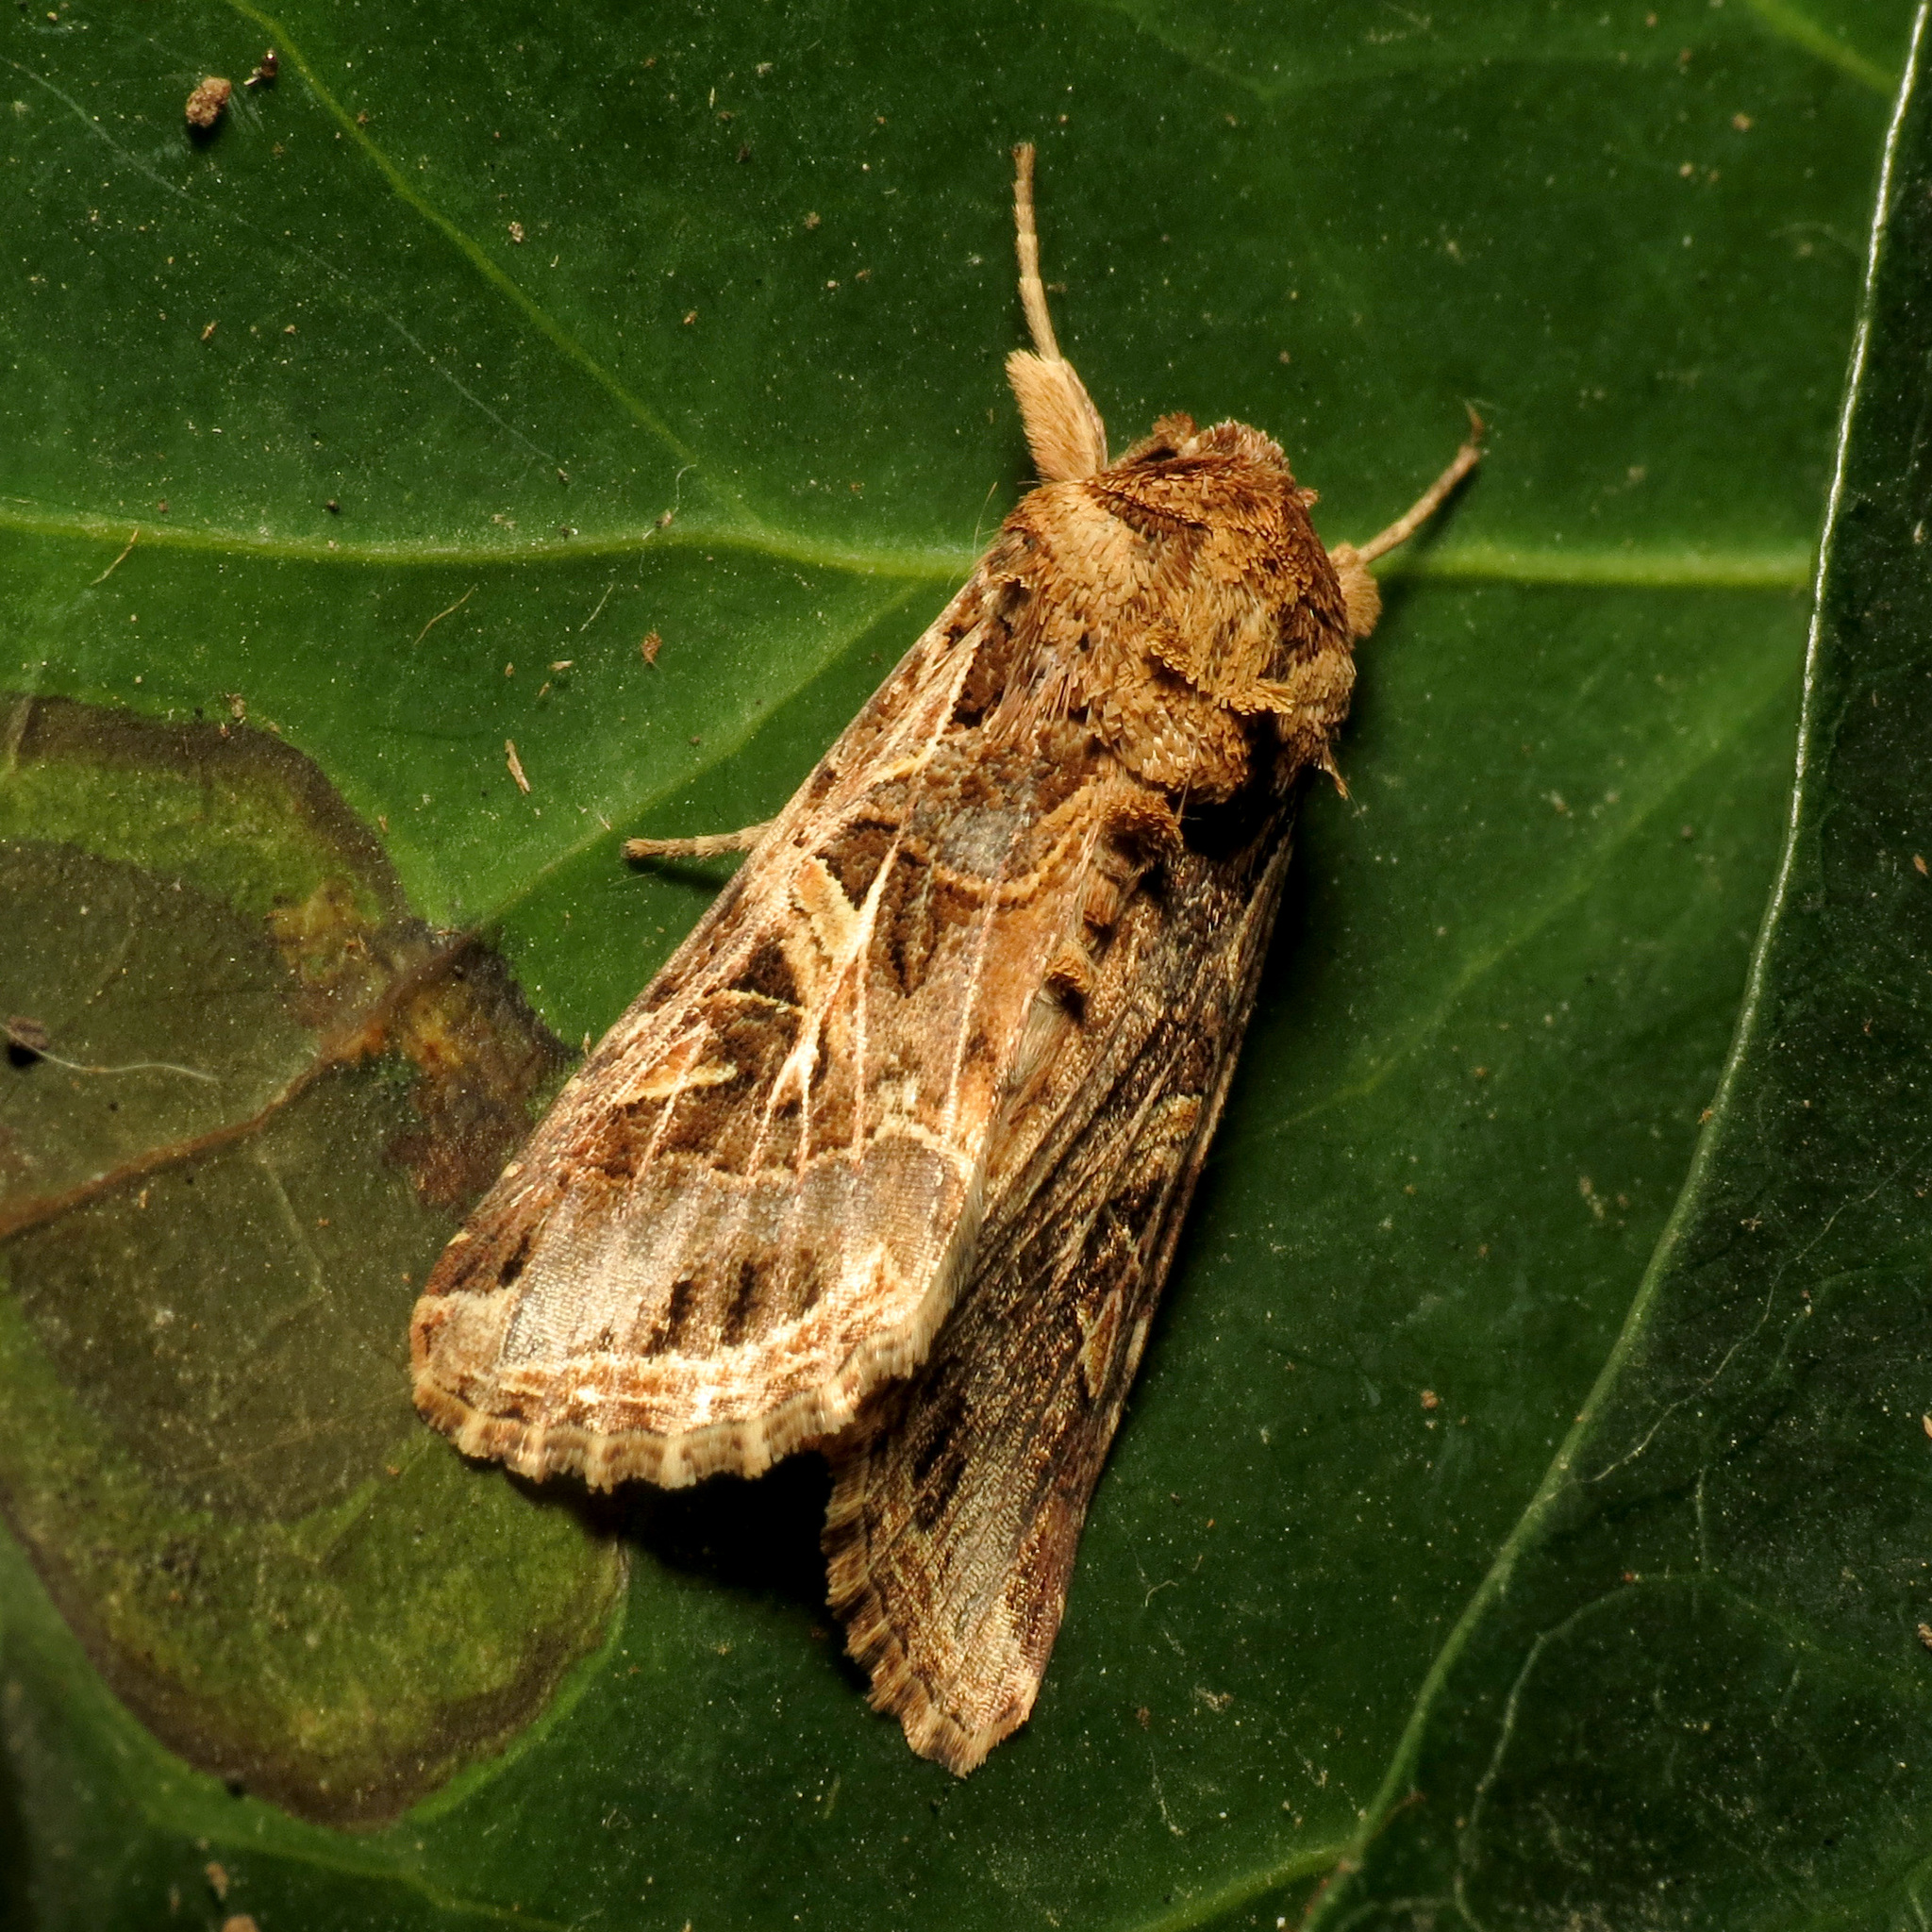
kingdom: Animalia
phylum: Arthropoda
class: Insecta
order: Lepidoptera
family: Noctuidae
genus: Spodoptera
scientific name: Spodoptera littoralis
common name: Egyptian cotton leafworm
